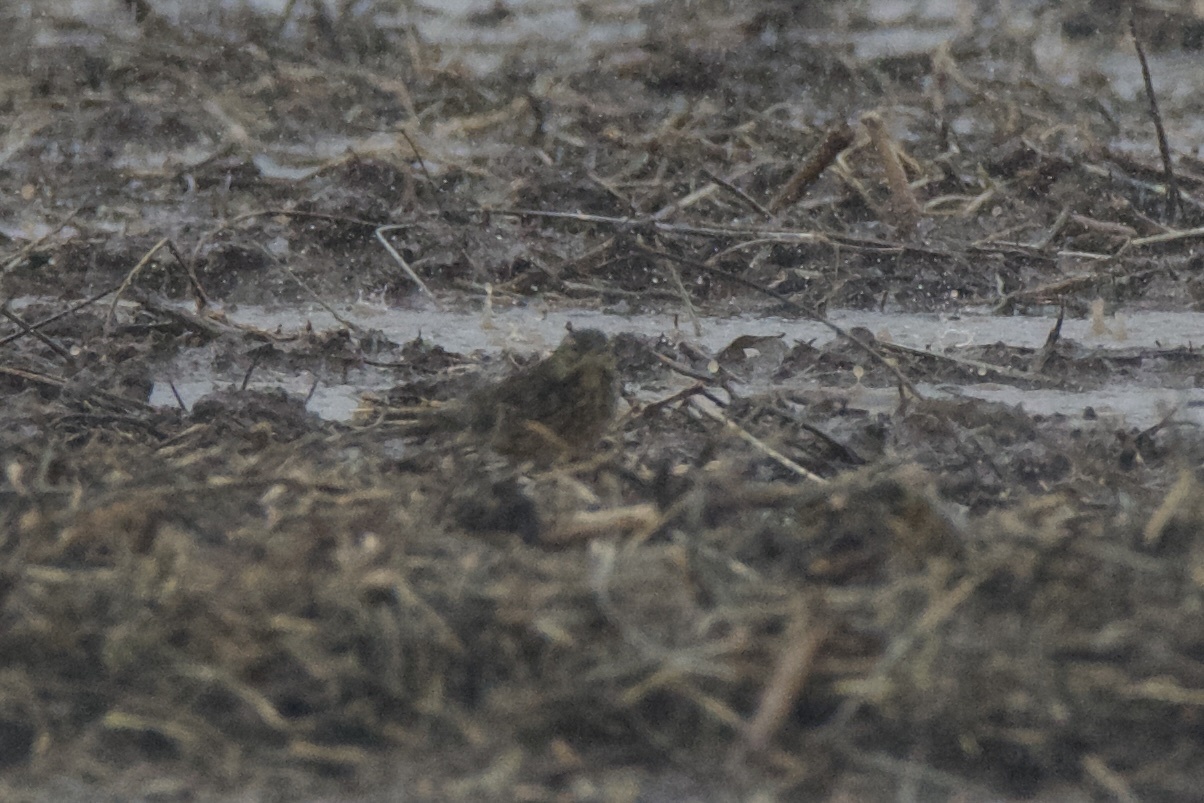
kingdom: Animalia
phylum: Chordata
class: Aves
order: Passeriformes
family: Motacillidae
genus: Anthus
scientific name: Anthus rubescens
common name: Buff-bellied pipit
